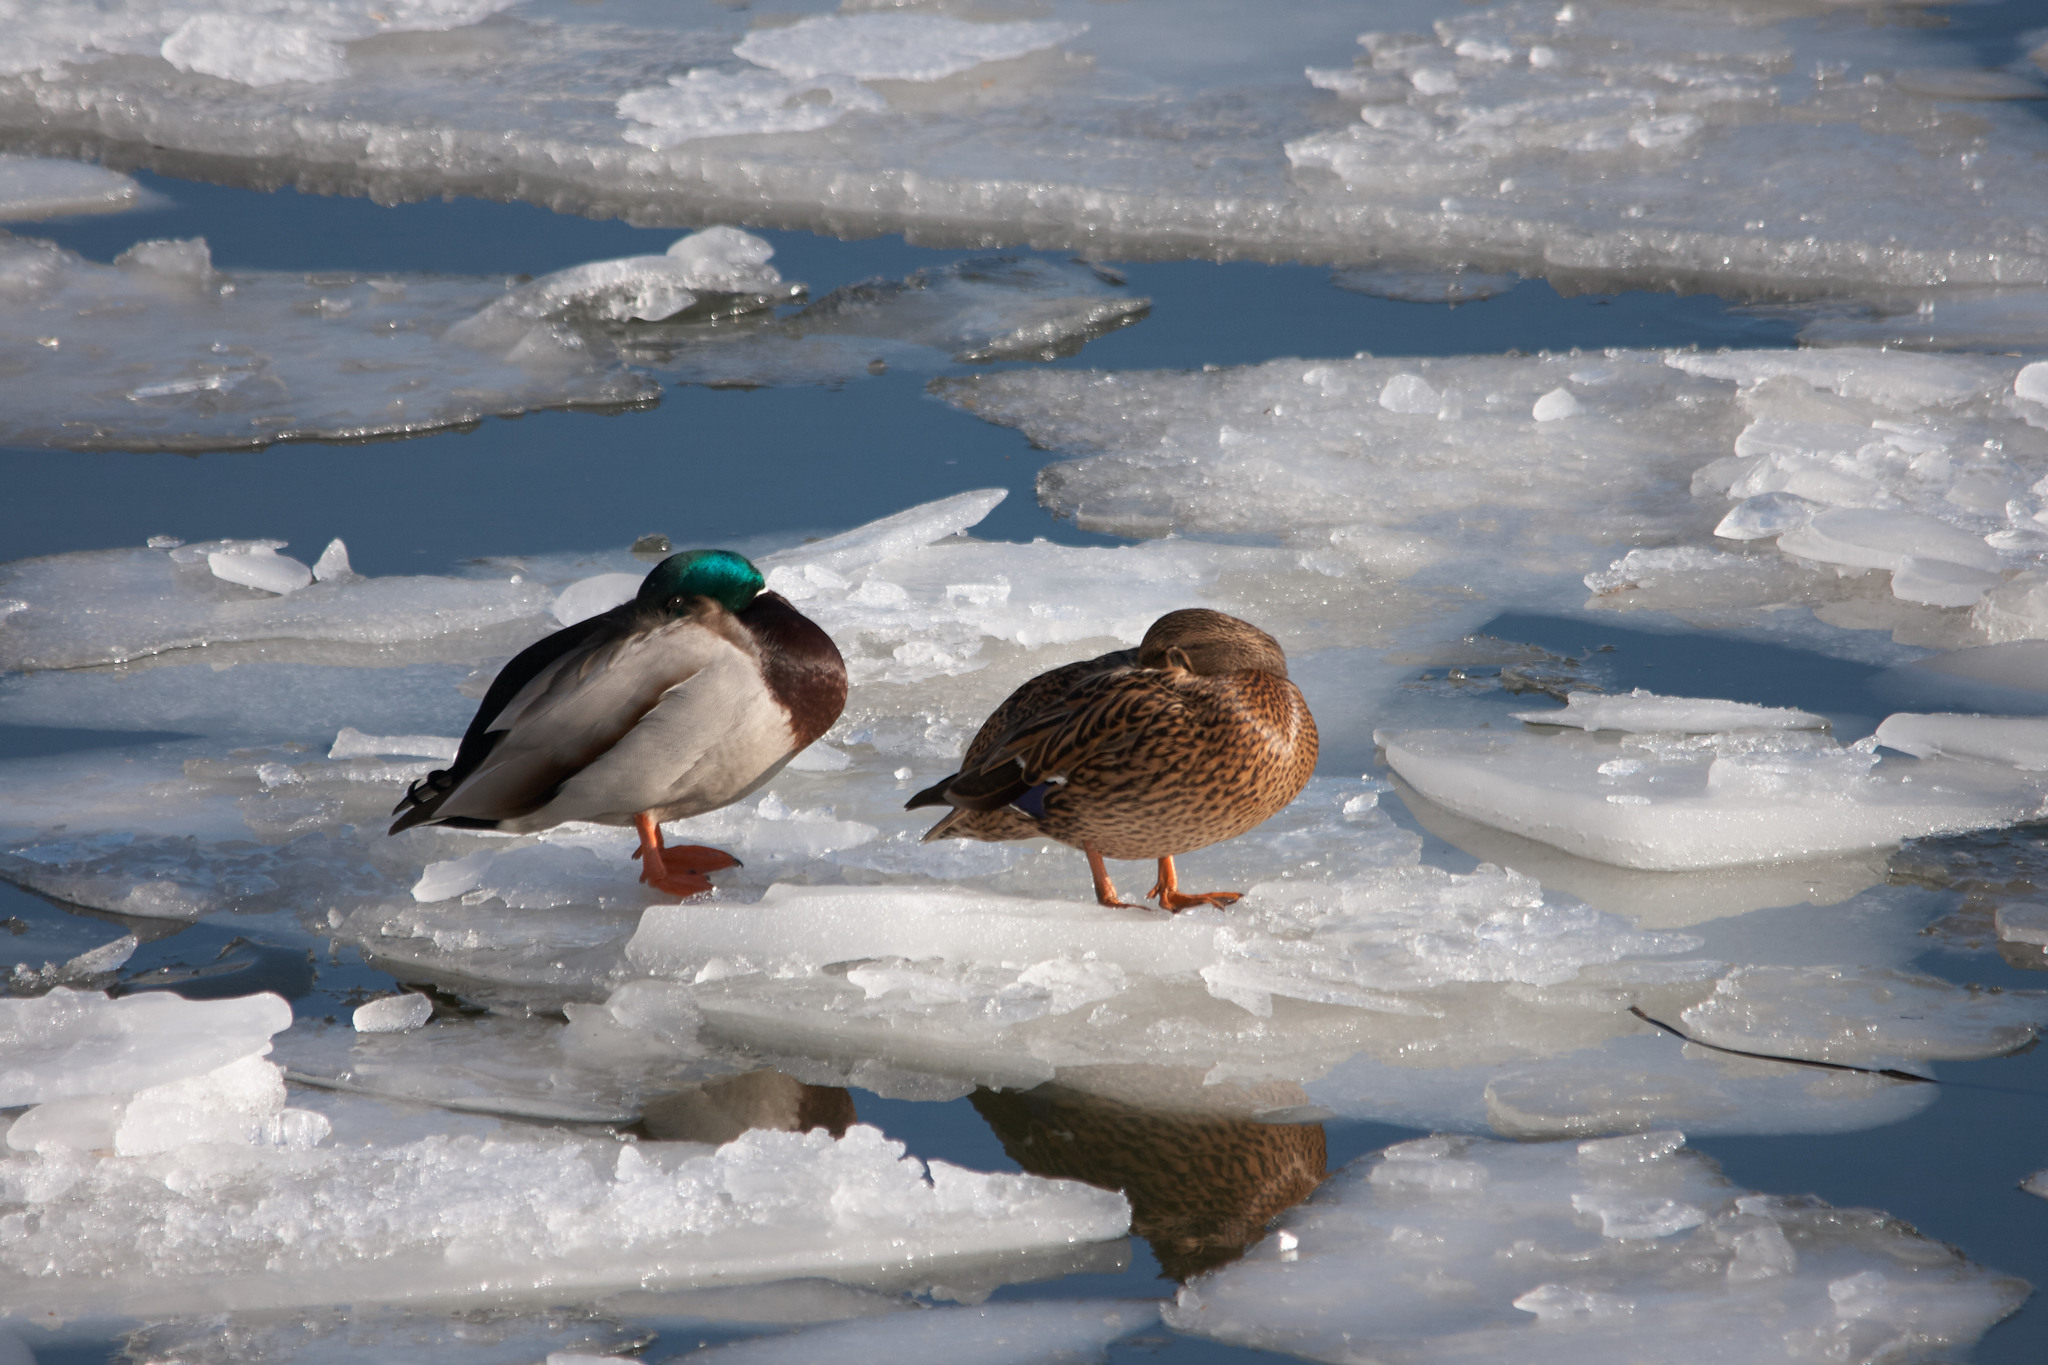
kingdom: Animalia
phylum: Chordata
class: Aves
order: Anseriformes
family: Anatidae
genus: Anas
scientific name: Anas platyrhynchos
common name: Mallard
